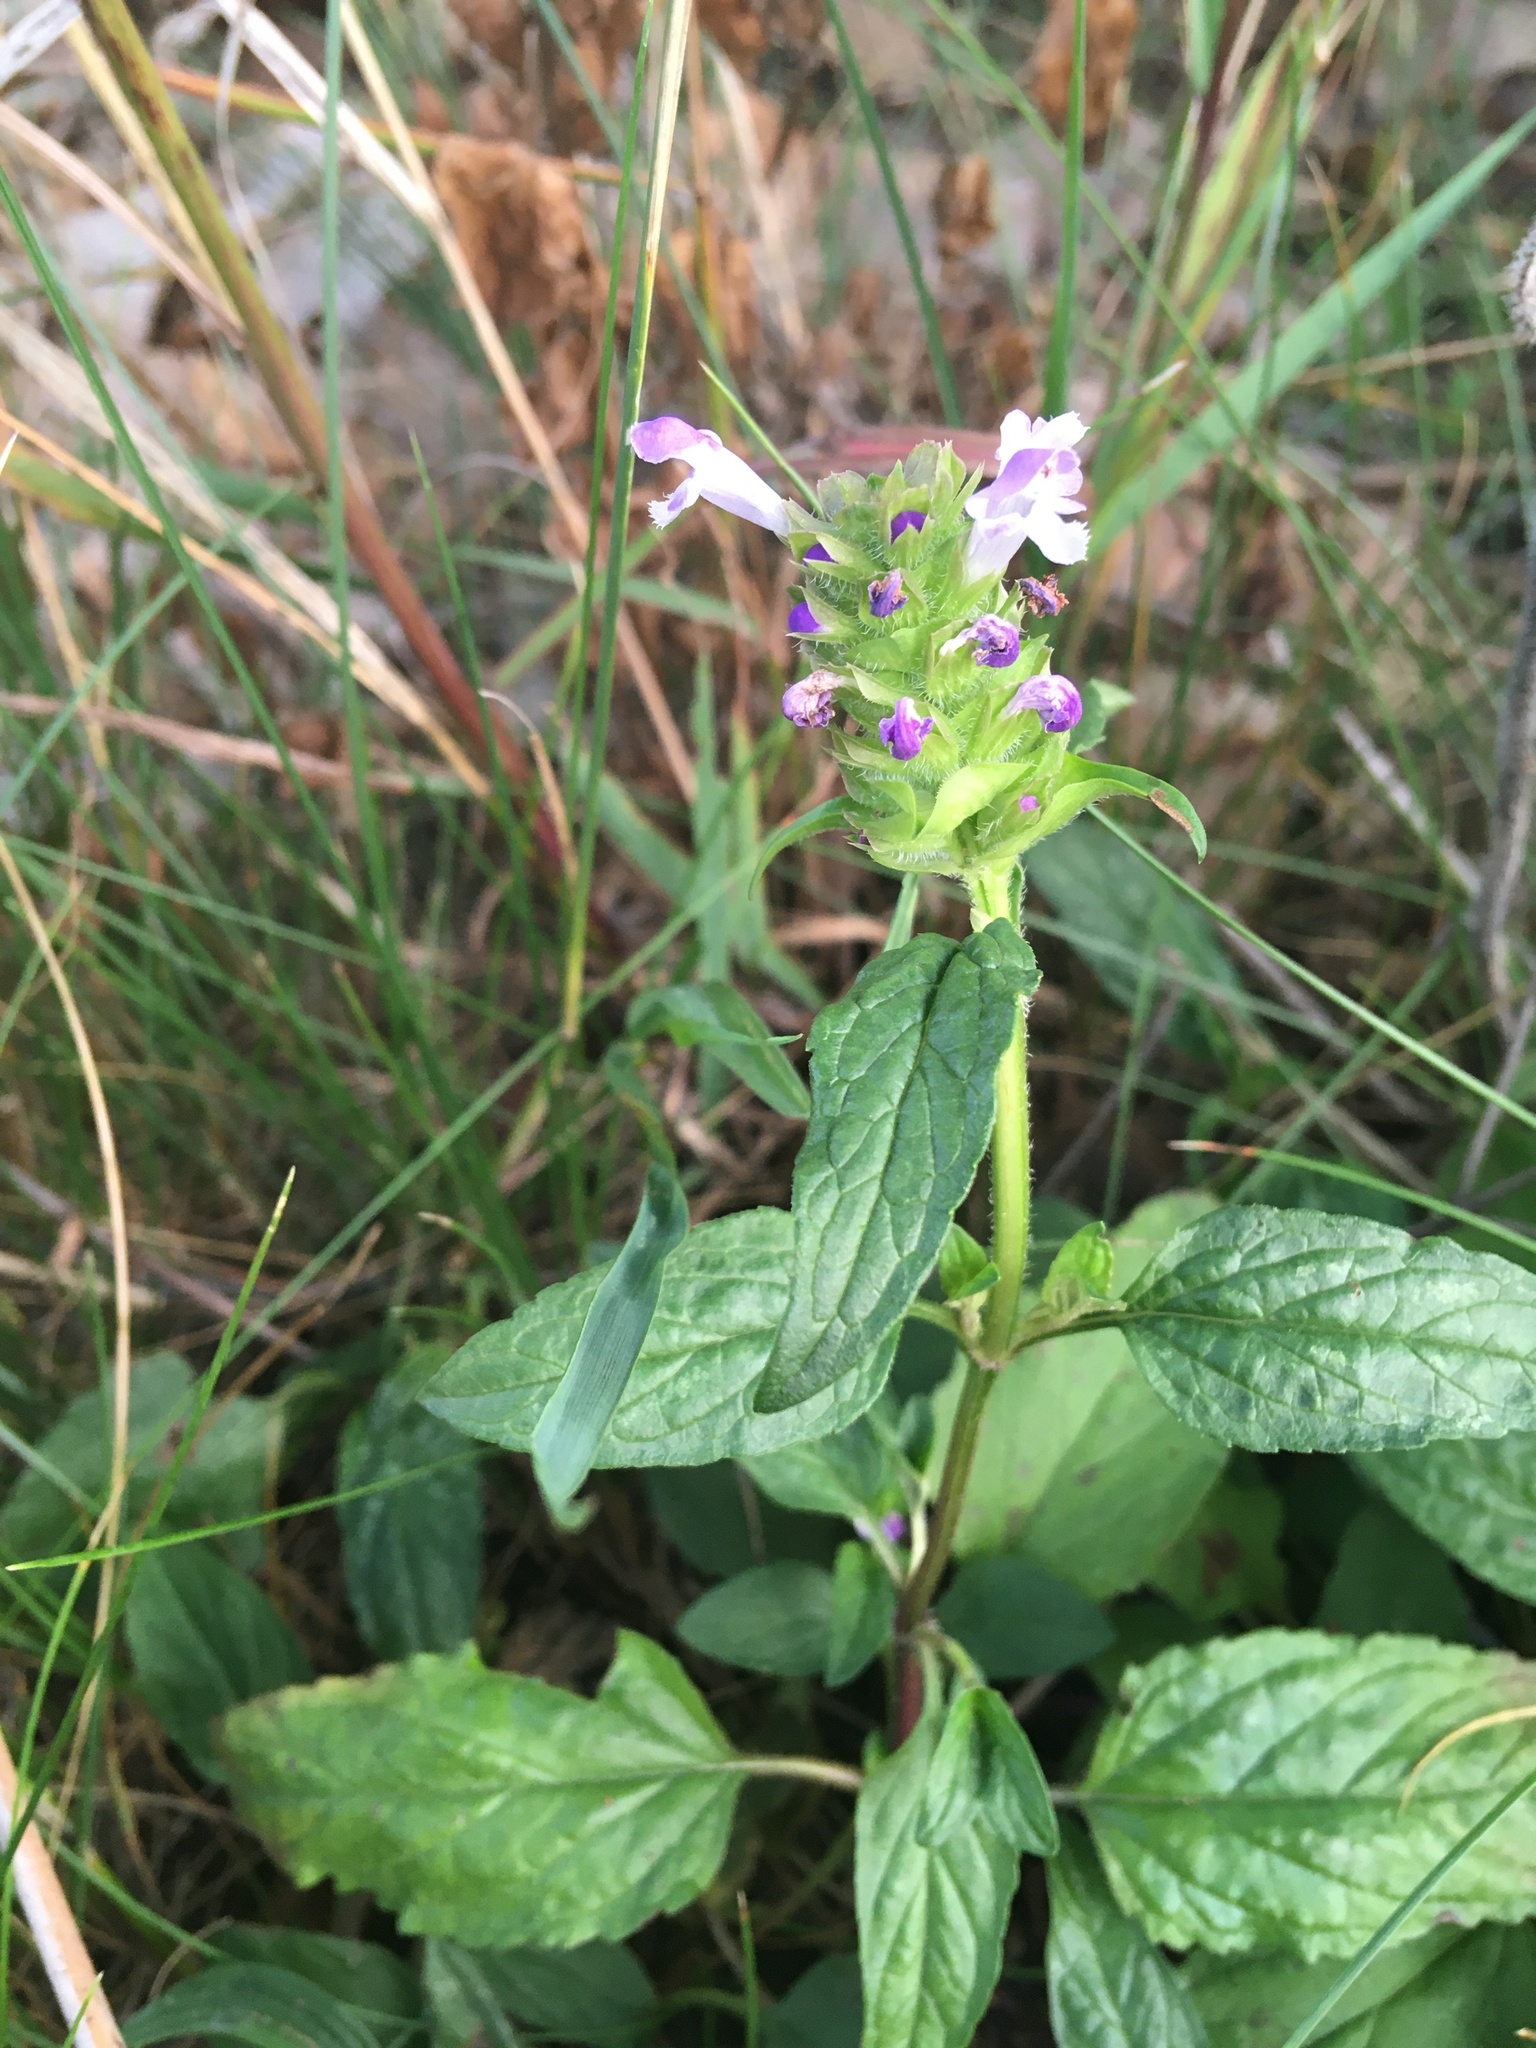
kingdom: Plantae
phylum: Tracheophyta
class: Magnoliopsida
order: Lamiales
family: Lamiaceae
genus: Prunella
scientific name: Prunella vulgaris
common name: Heal-all
